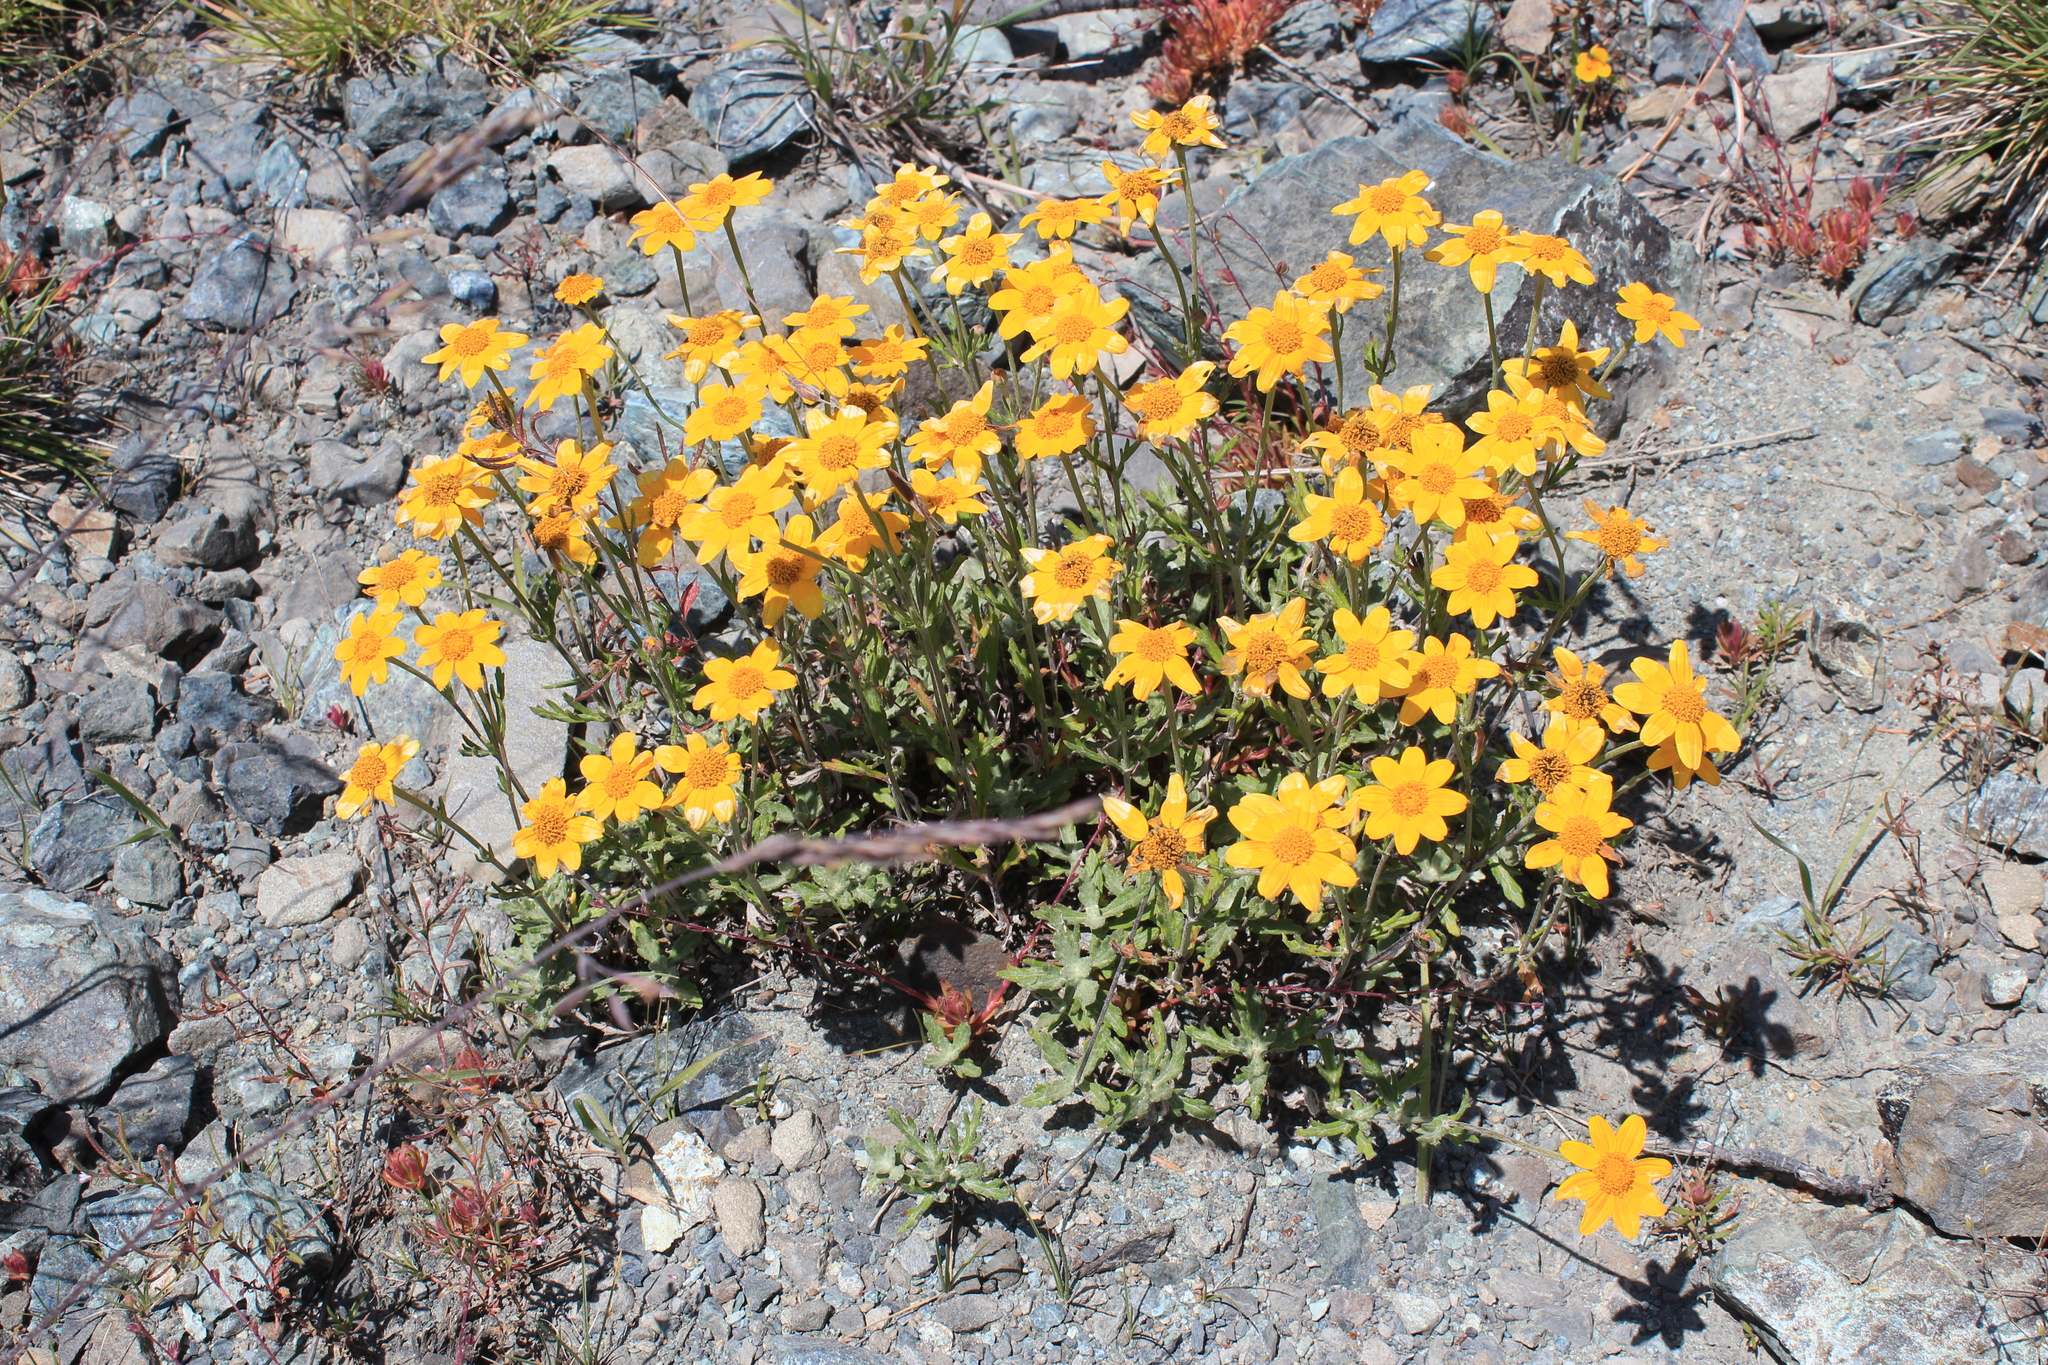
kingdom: Plantae
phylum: Tracheophyta
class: Magnoliopsida
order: Asterales
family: Asteraceae
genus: Eriophyllum
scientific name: Eriophyllum lanatum
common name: Common woolly-sunflower
